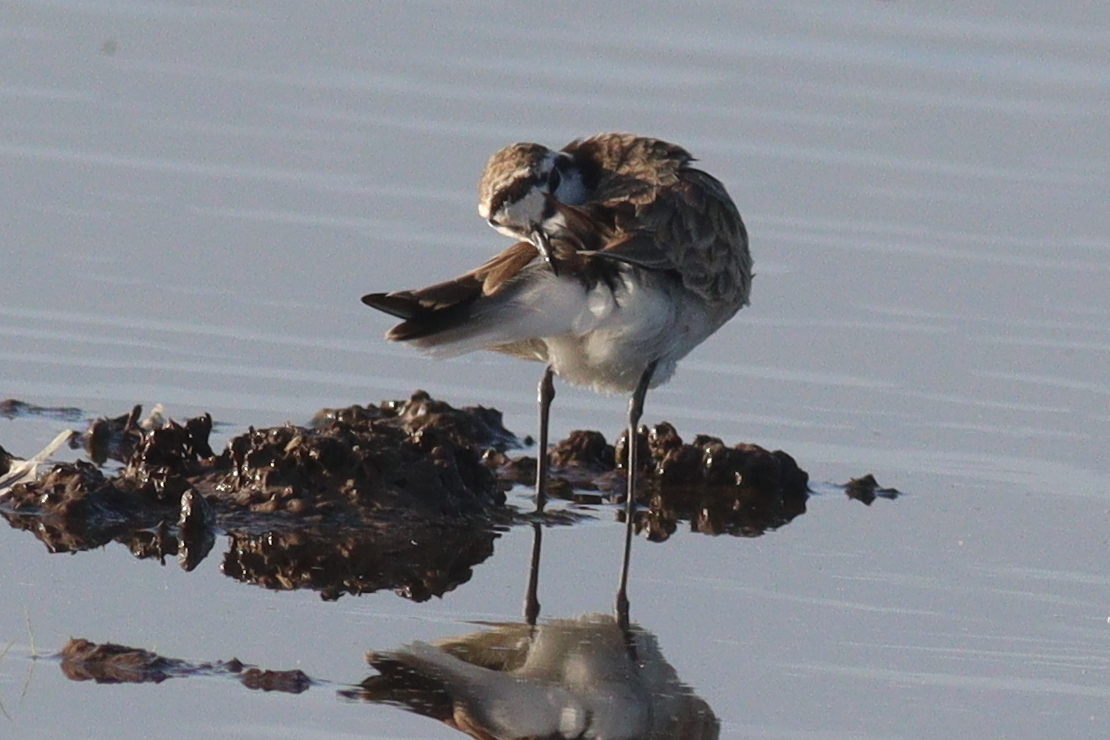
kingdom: Animalia
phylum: Chordata
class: Aves
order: Charadriiformes
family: Charadriidae
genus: Anarhynchus
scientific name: Anarhynchus
